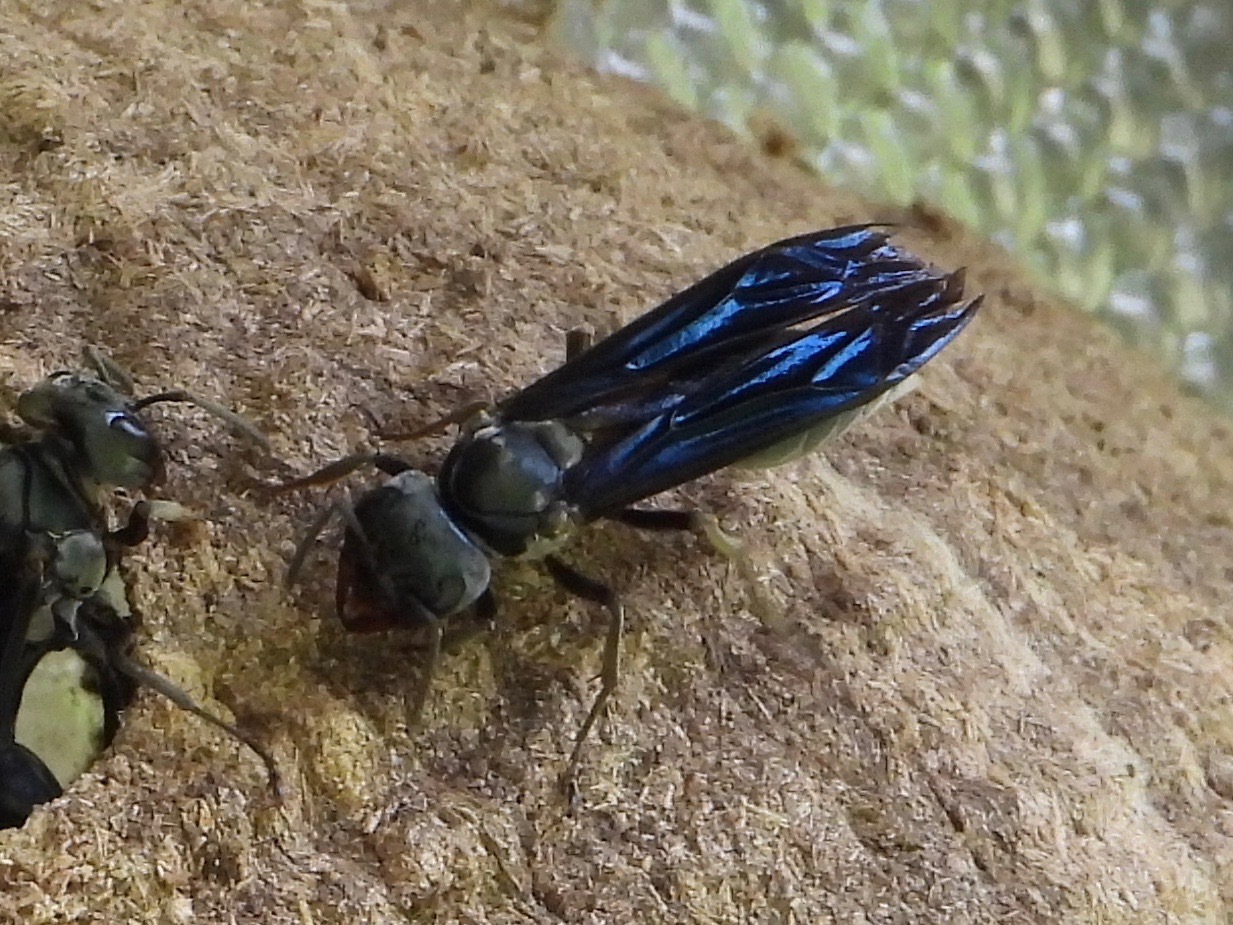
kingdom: Animalia
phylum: Arthropoda
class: Insecta
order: Hymenoptera
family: Vespidae
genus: Synoeca
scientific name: Synoeca septentrionalis
